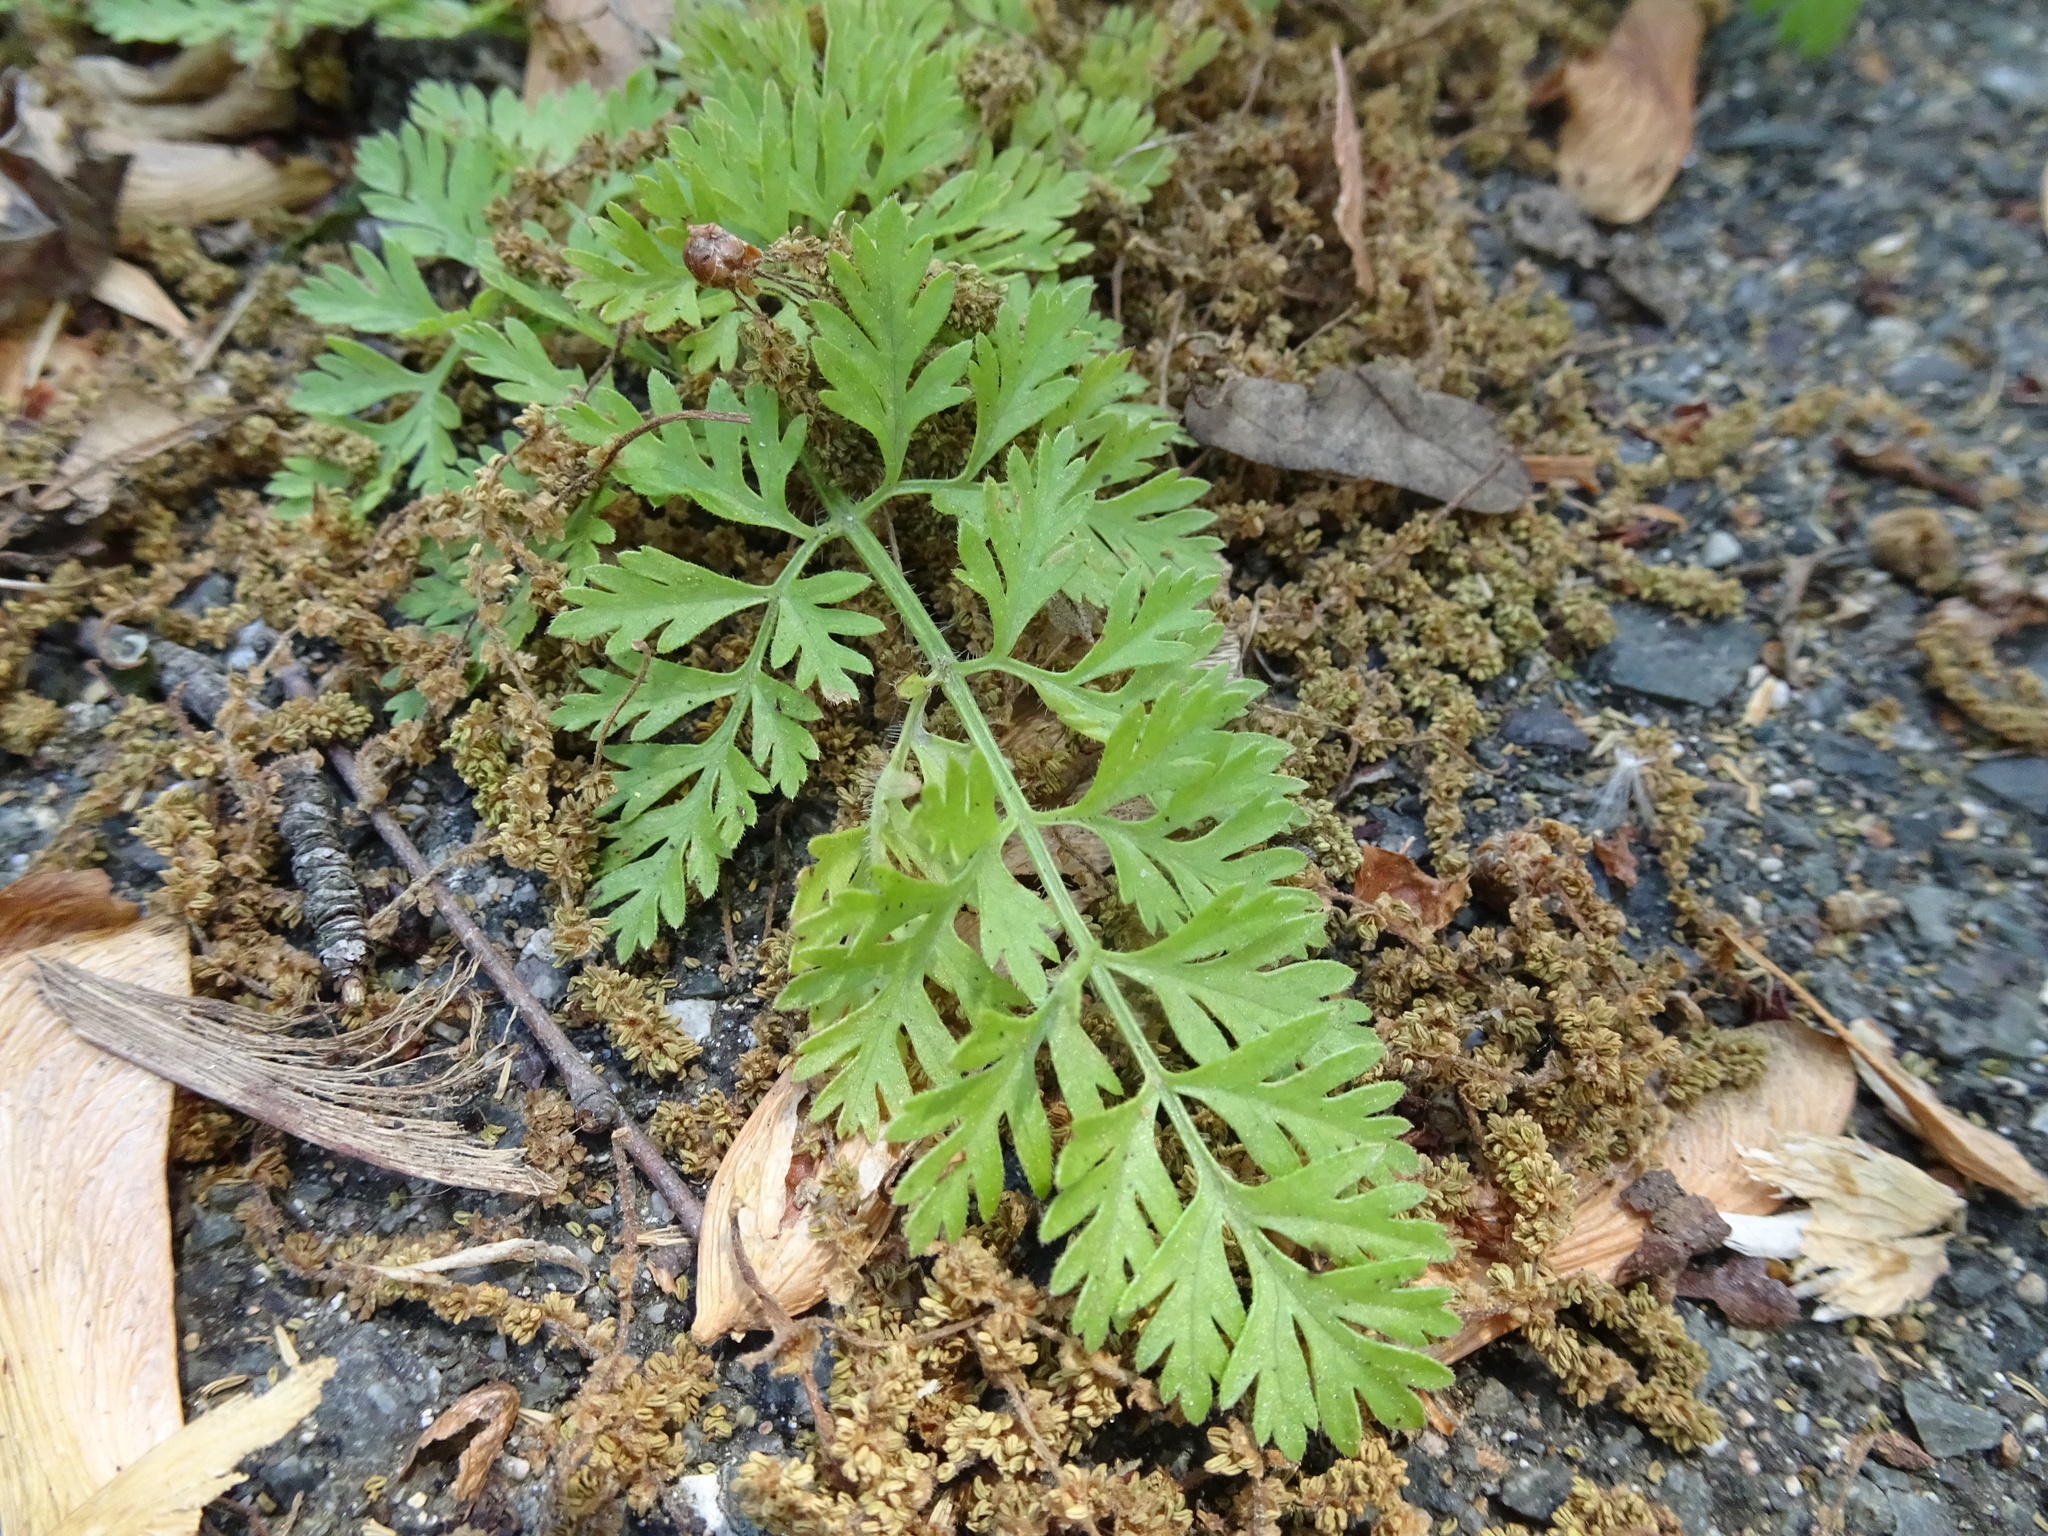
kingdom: Plantae
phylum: Tracheophyta
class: Magnoliopsida
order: Asterales
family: Asteraceae
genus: Ambrosia
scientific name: Ambrosia artemisiifolia
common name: Annual ragweed
